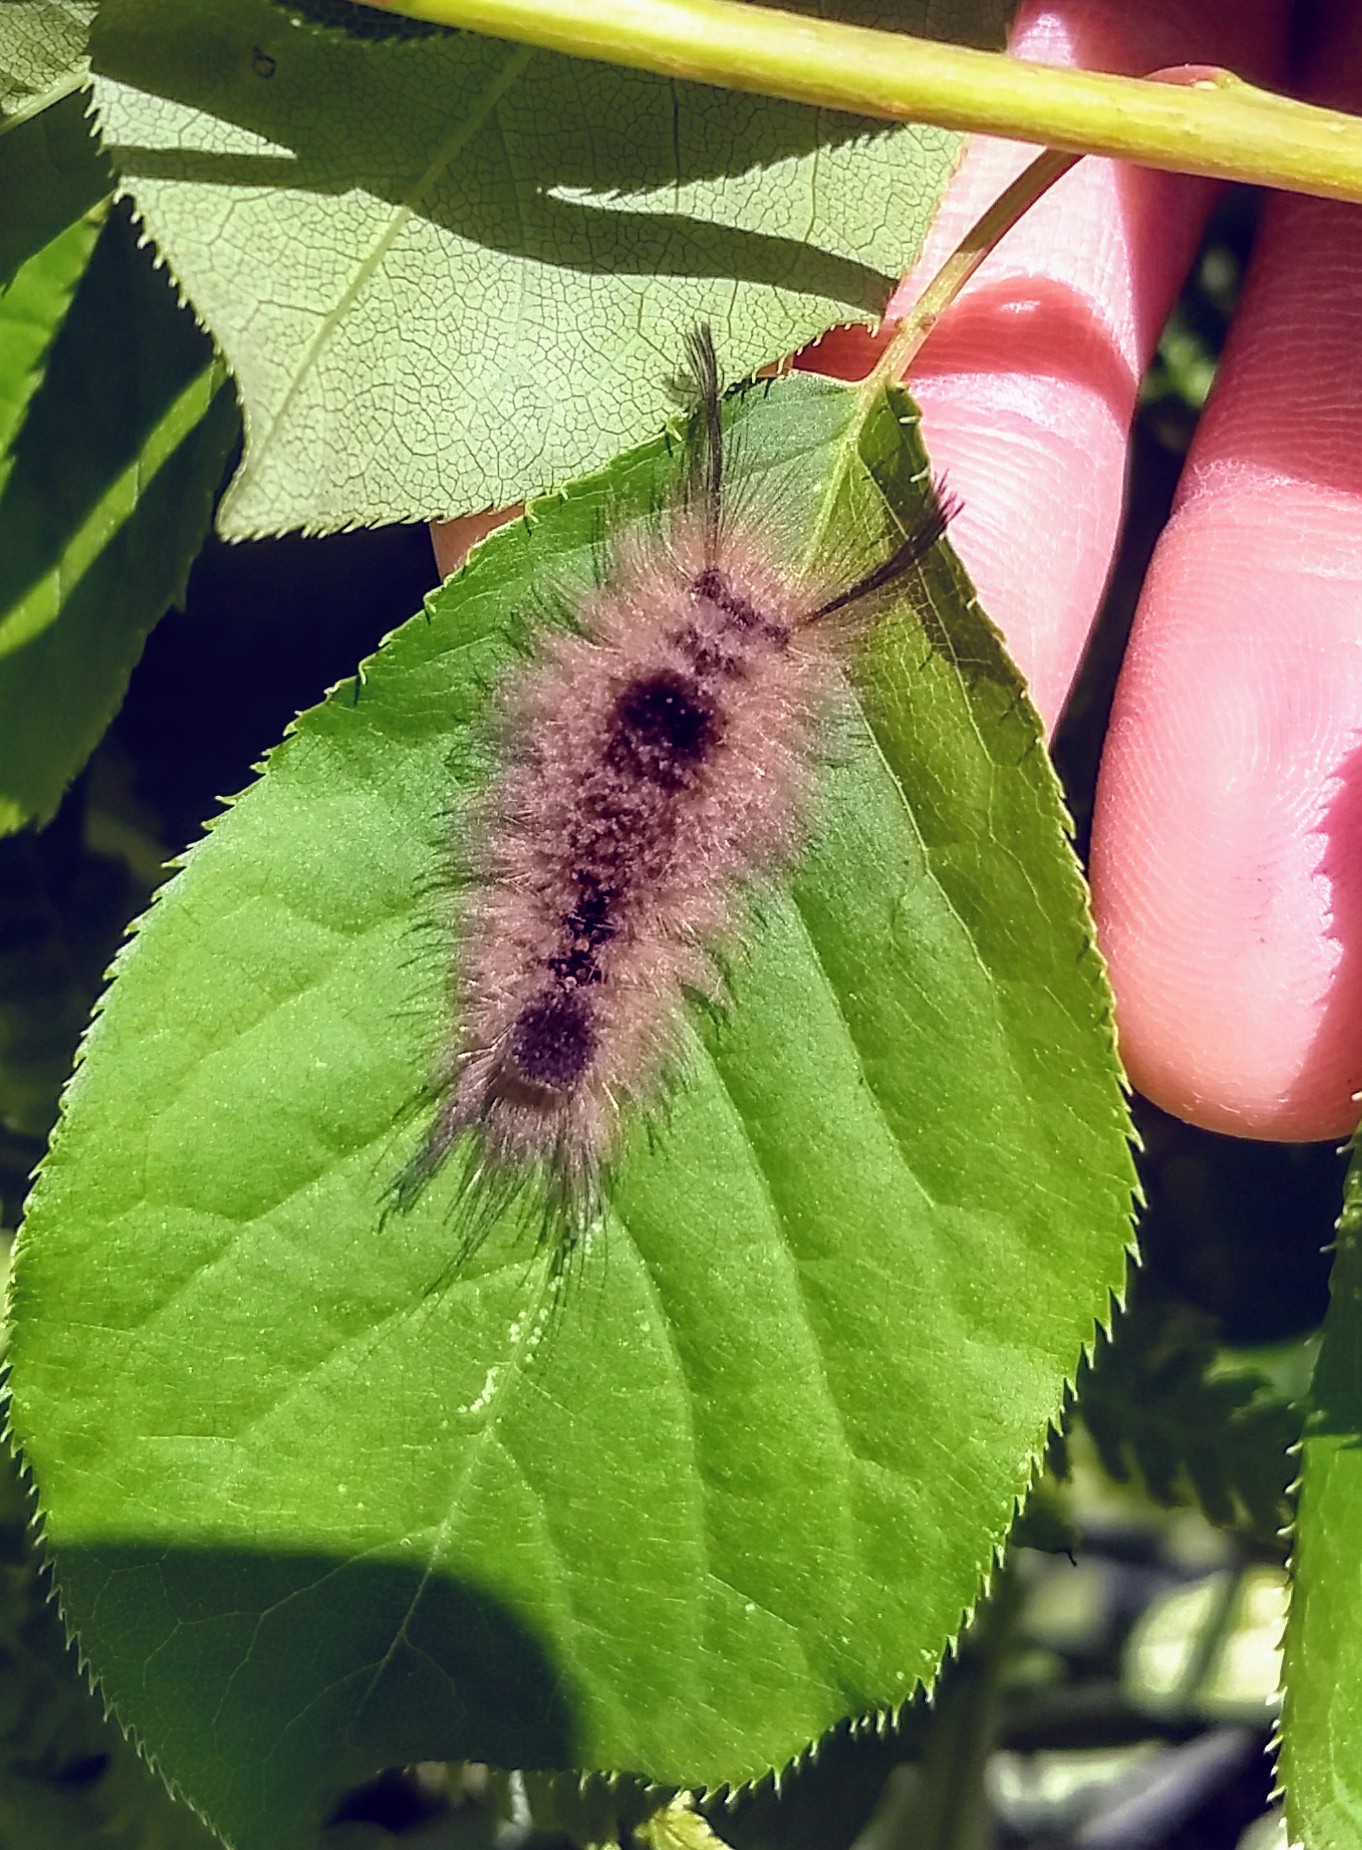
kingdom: Animalia
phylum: Arthropoda
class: Insecta
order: Lepidoptera
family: Erebidae
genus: Dasychira
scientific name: Dasychira obliquata
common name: Streaked tussock moth
